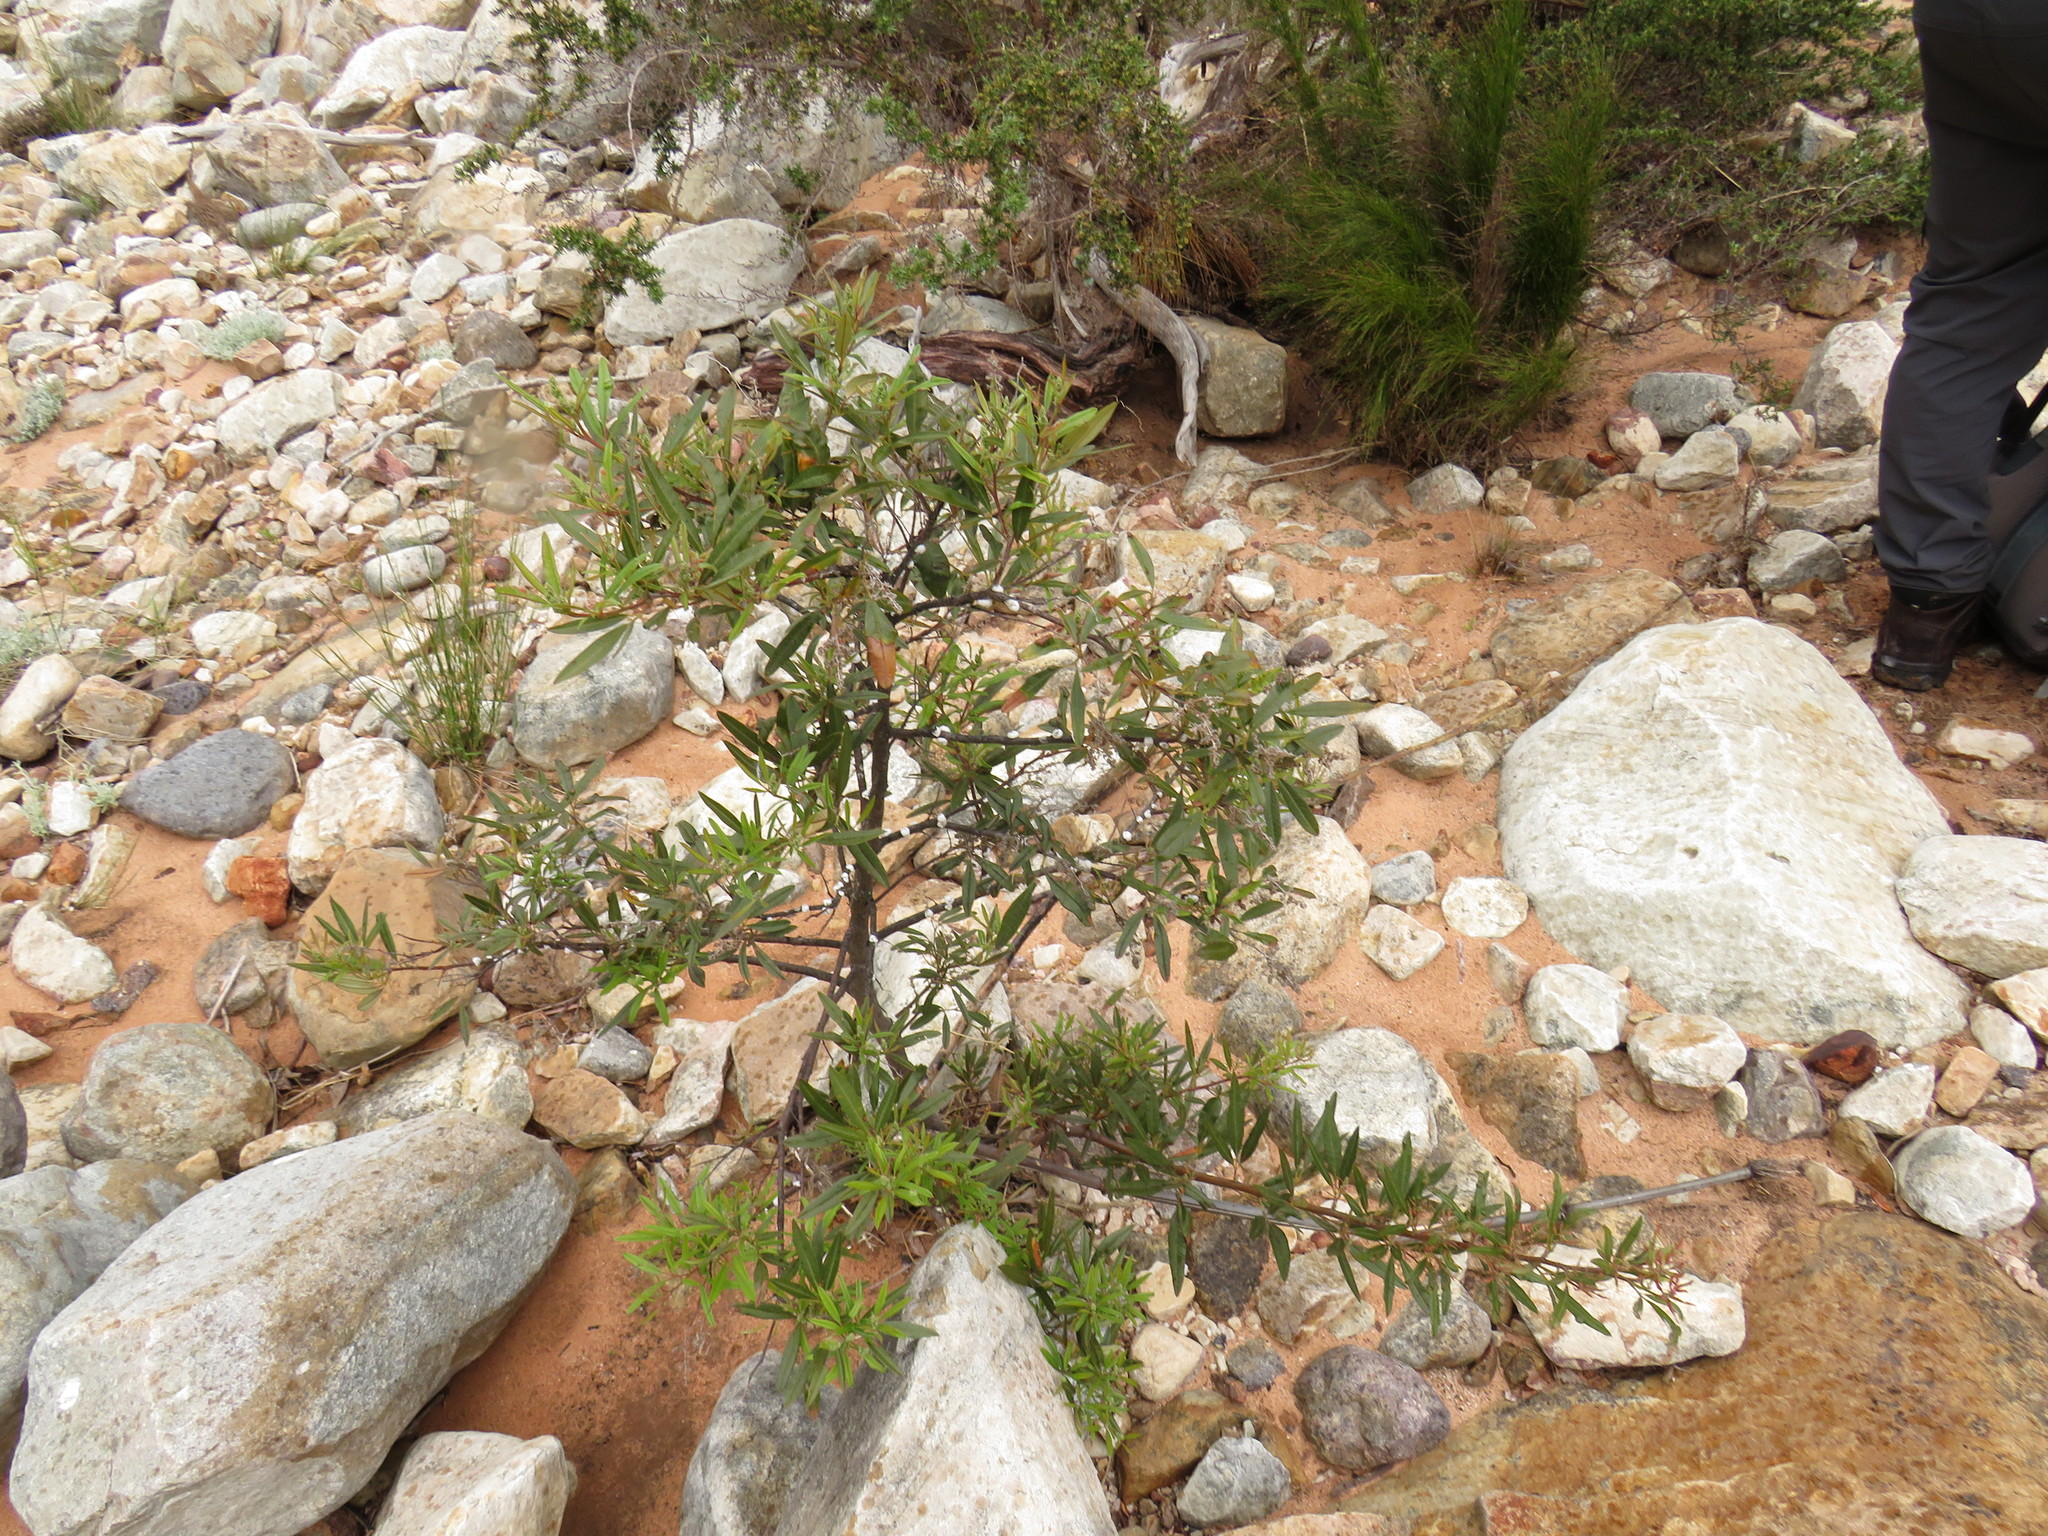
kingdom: Plantae
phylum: Tracheophyta
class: Magnoliopsida
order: Sapindales
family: Anacardiaceae
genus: Searsia
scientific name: Searsia angustifolia
